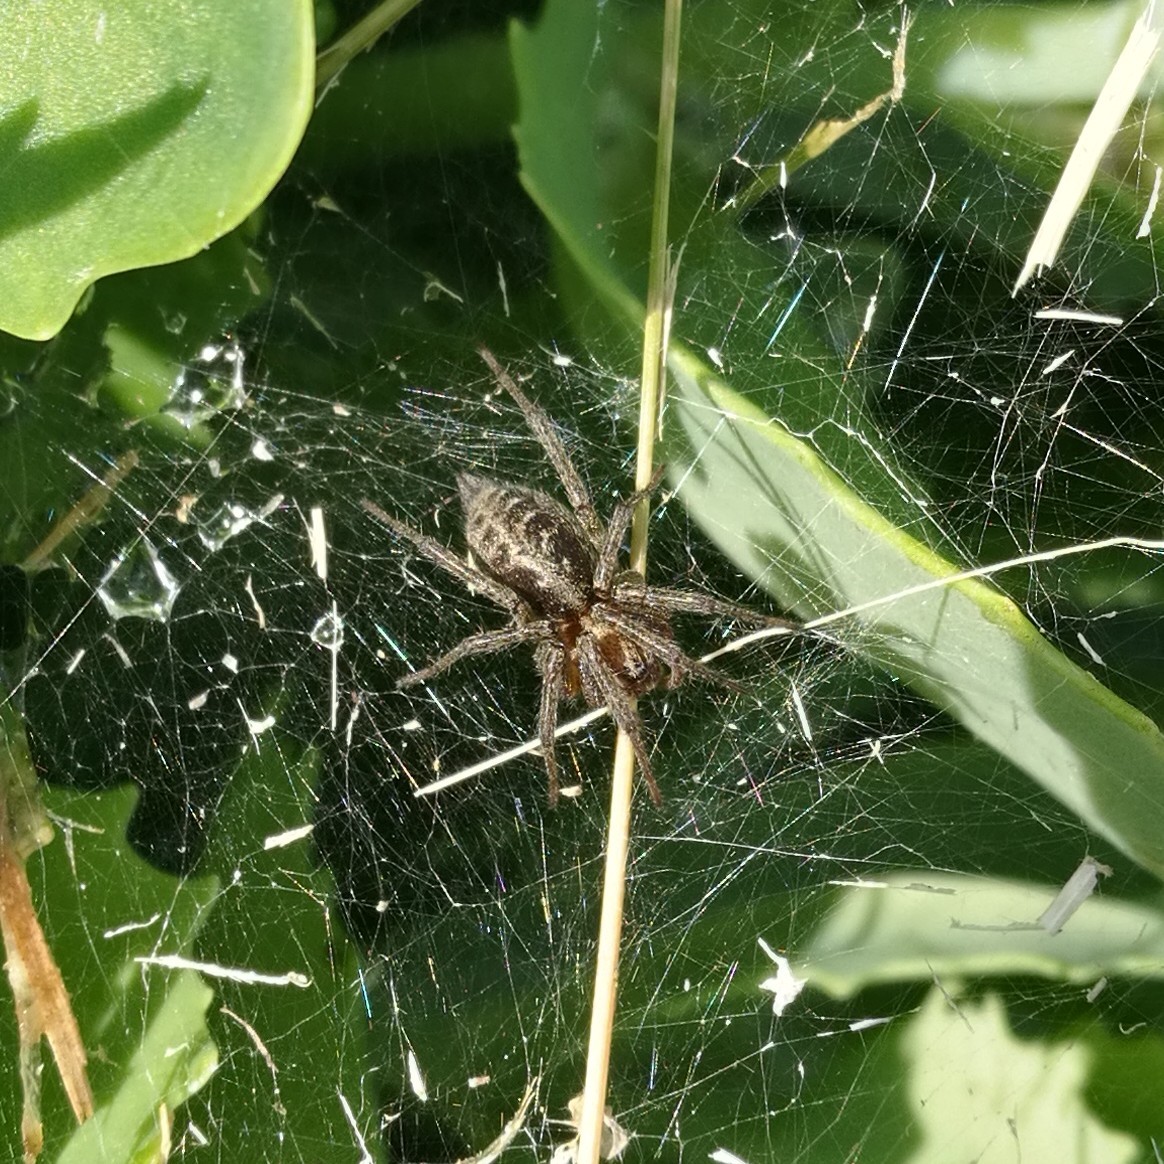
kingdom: Animalia
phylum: Arthropoda
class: Arachnida
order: Araneae
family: Agelenidae
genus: Agelena
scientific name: Agelena labyrinthica
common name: Labyrinth spider
